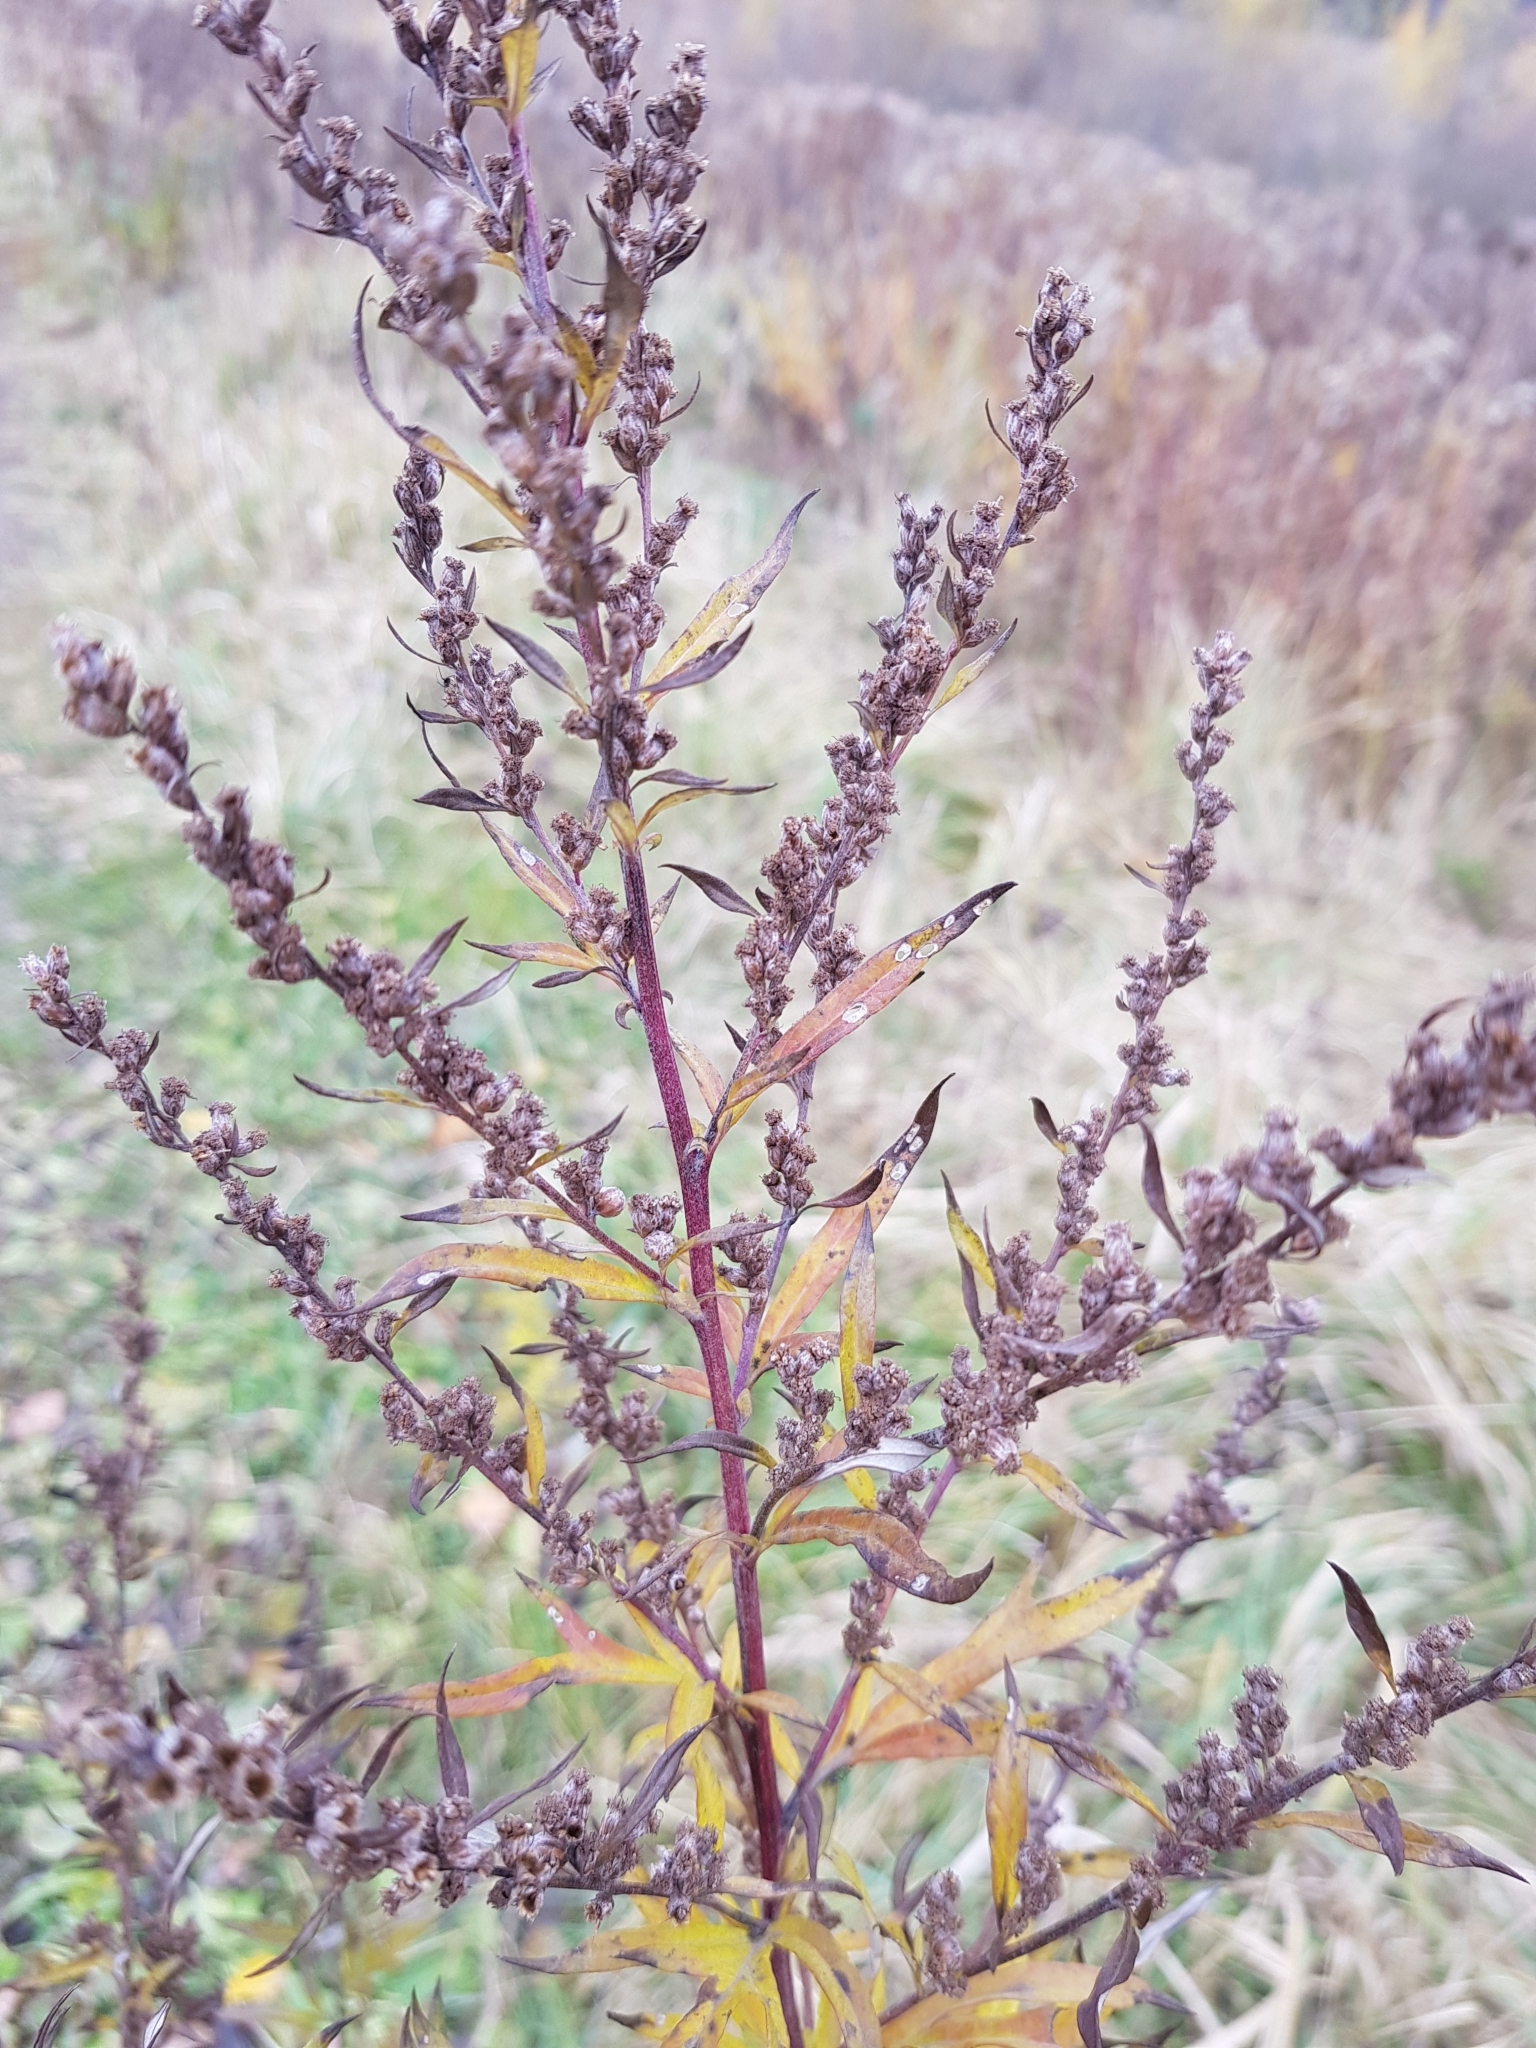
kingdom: Plantae
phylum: Tracheophyta
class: Magnoliopsida
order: Asterales
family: Asteraceae
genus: Artemisia
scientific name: Artemisia vulgaris
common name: Mugwort
